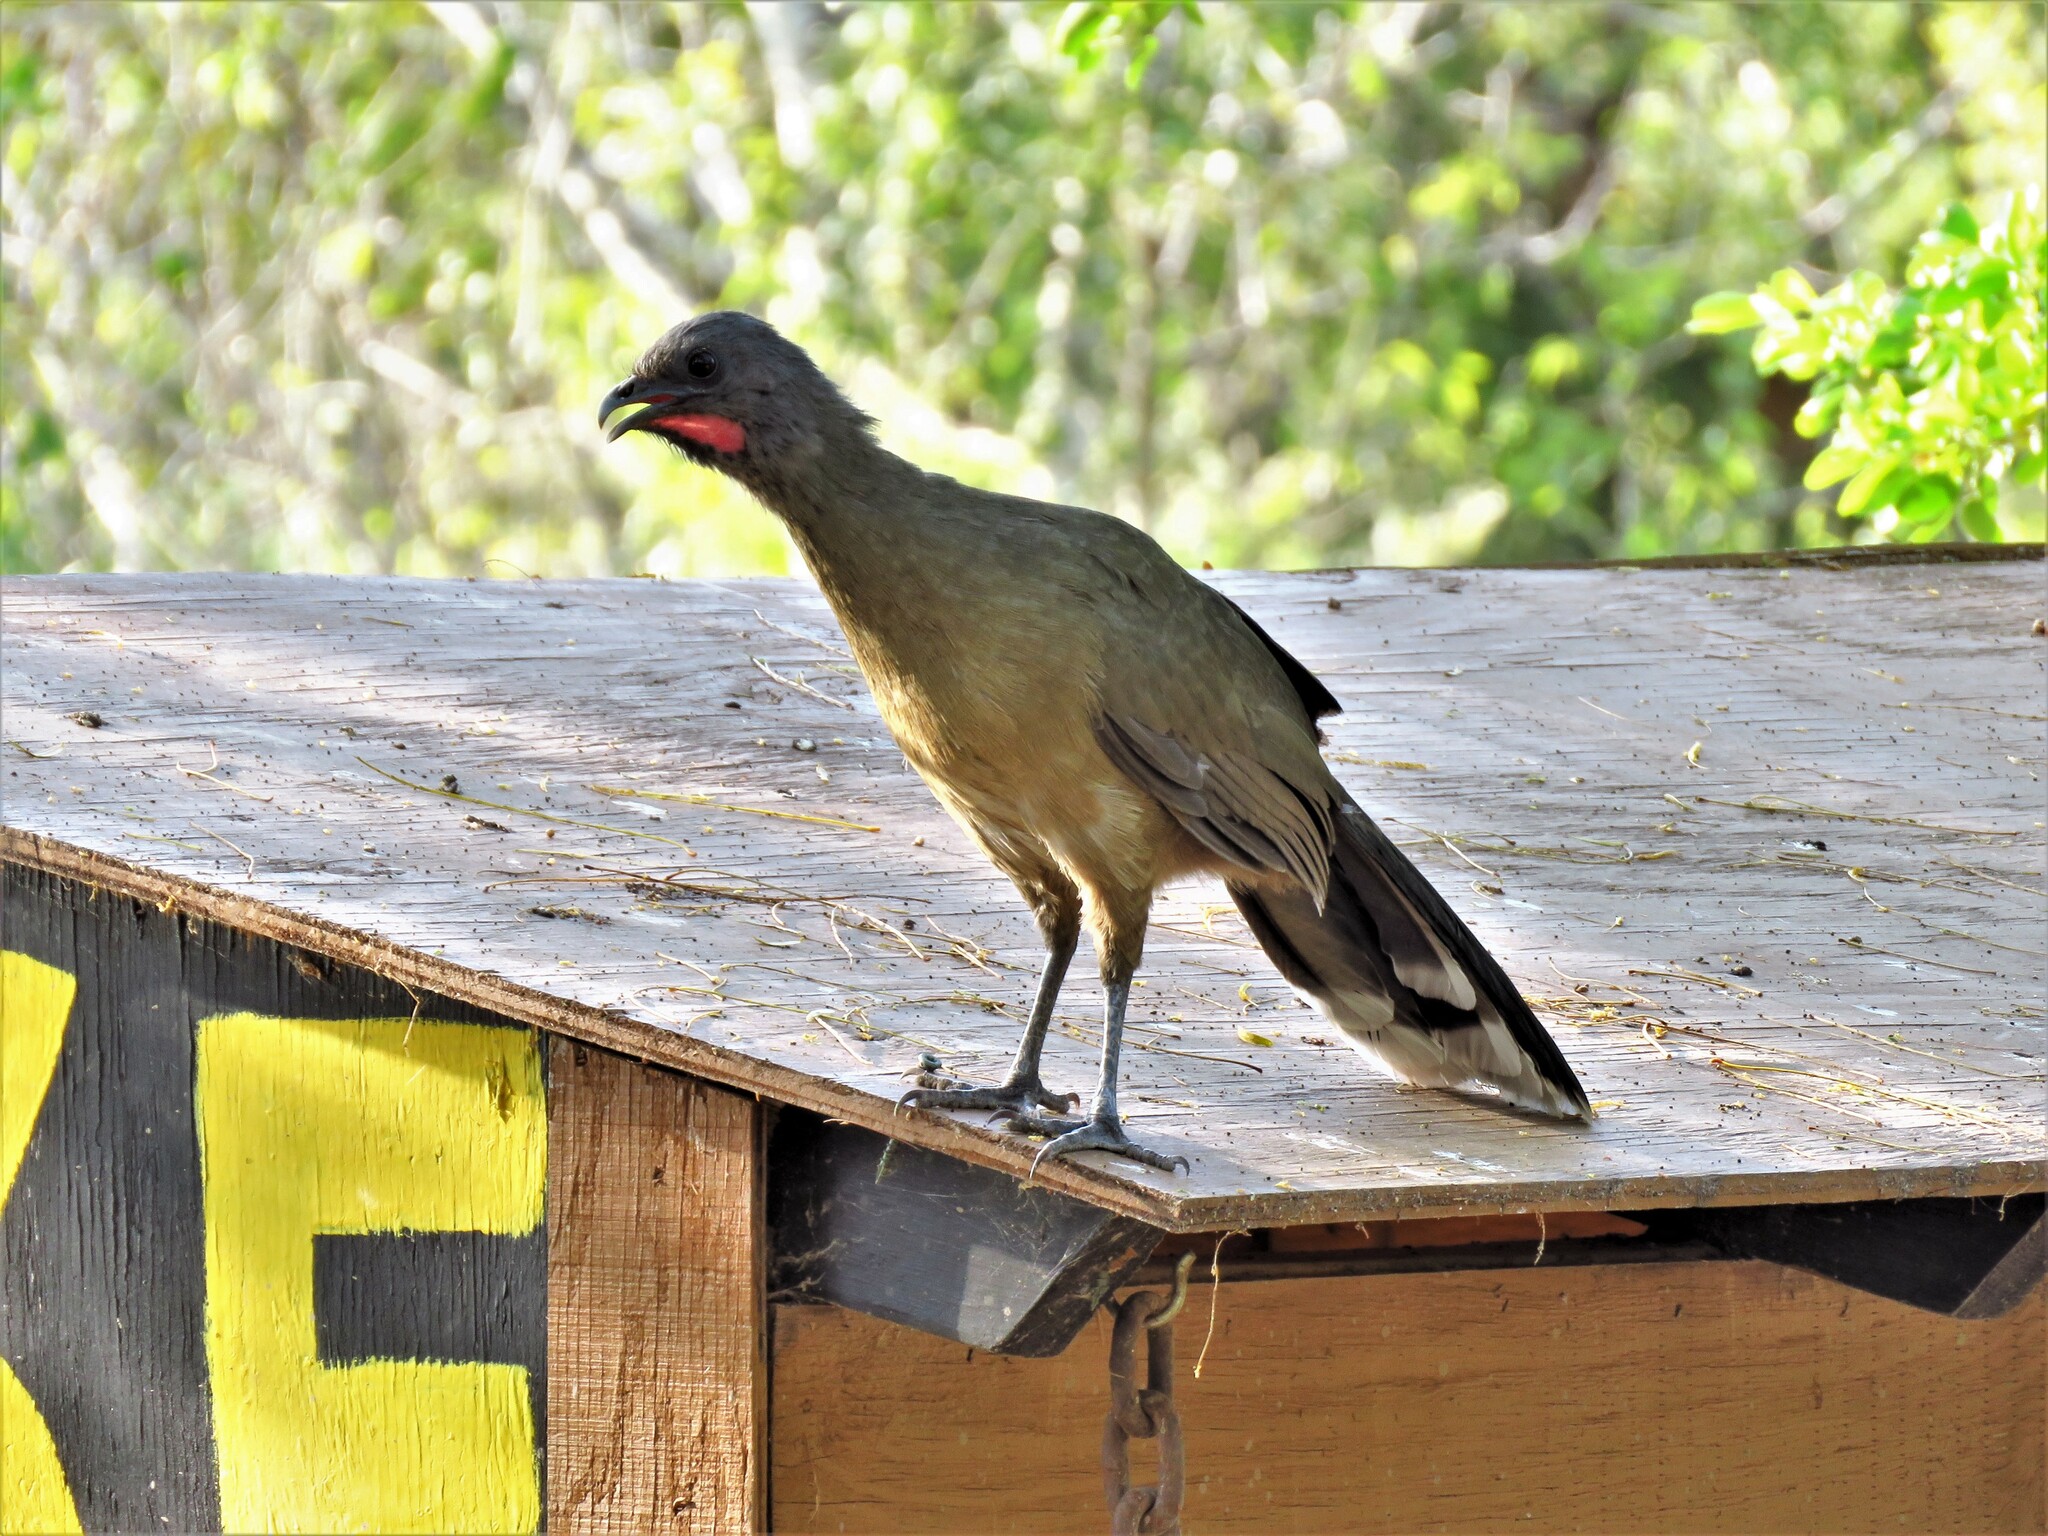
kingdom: Animalia
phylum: Chordata
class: Aves
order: Galliformes
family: Cracidae
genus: Ortalis
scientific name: Ortalis vetula
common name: Plain chachalaca
